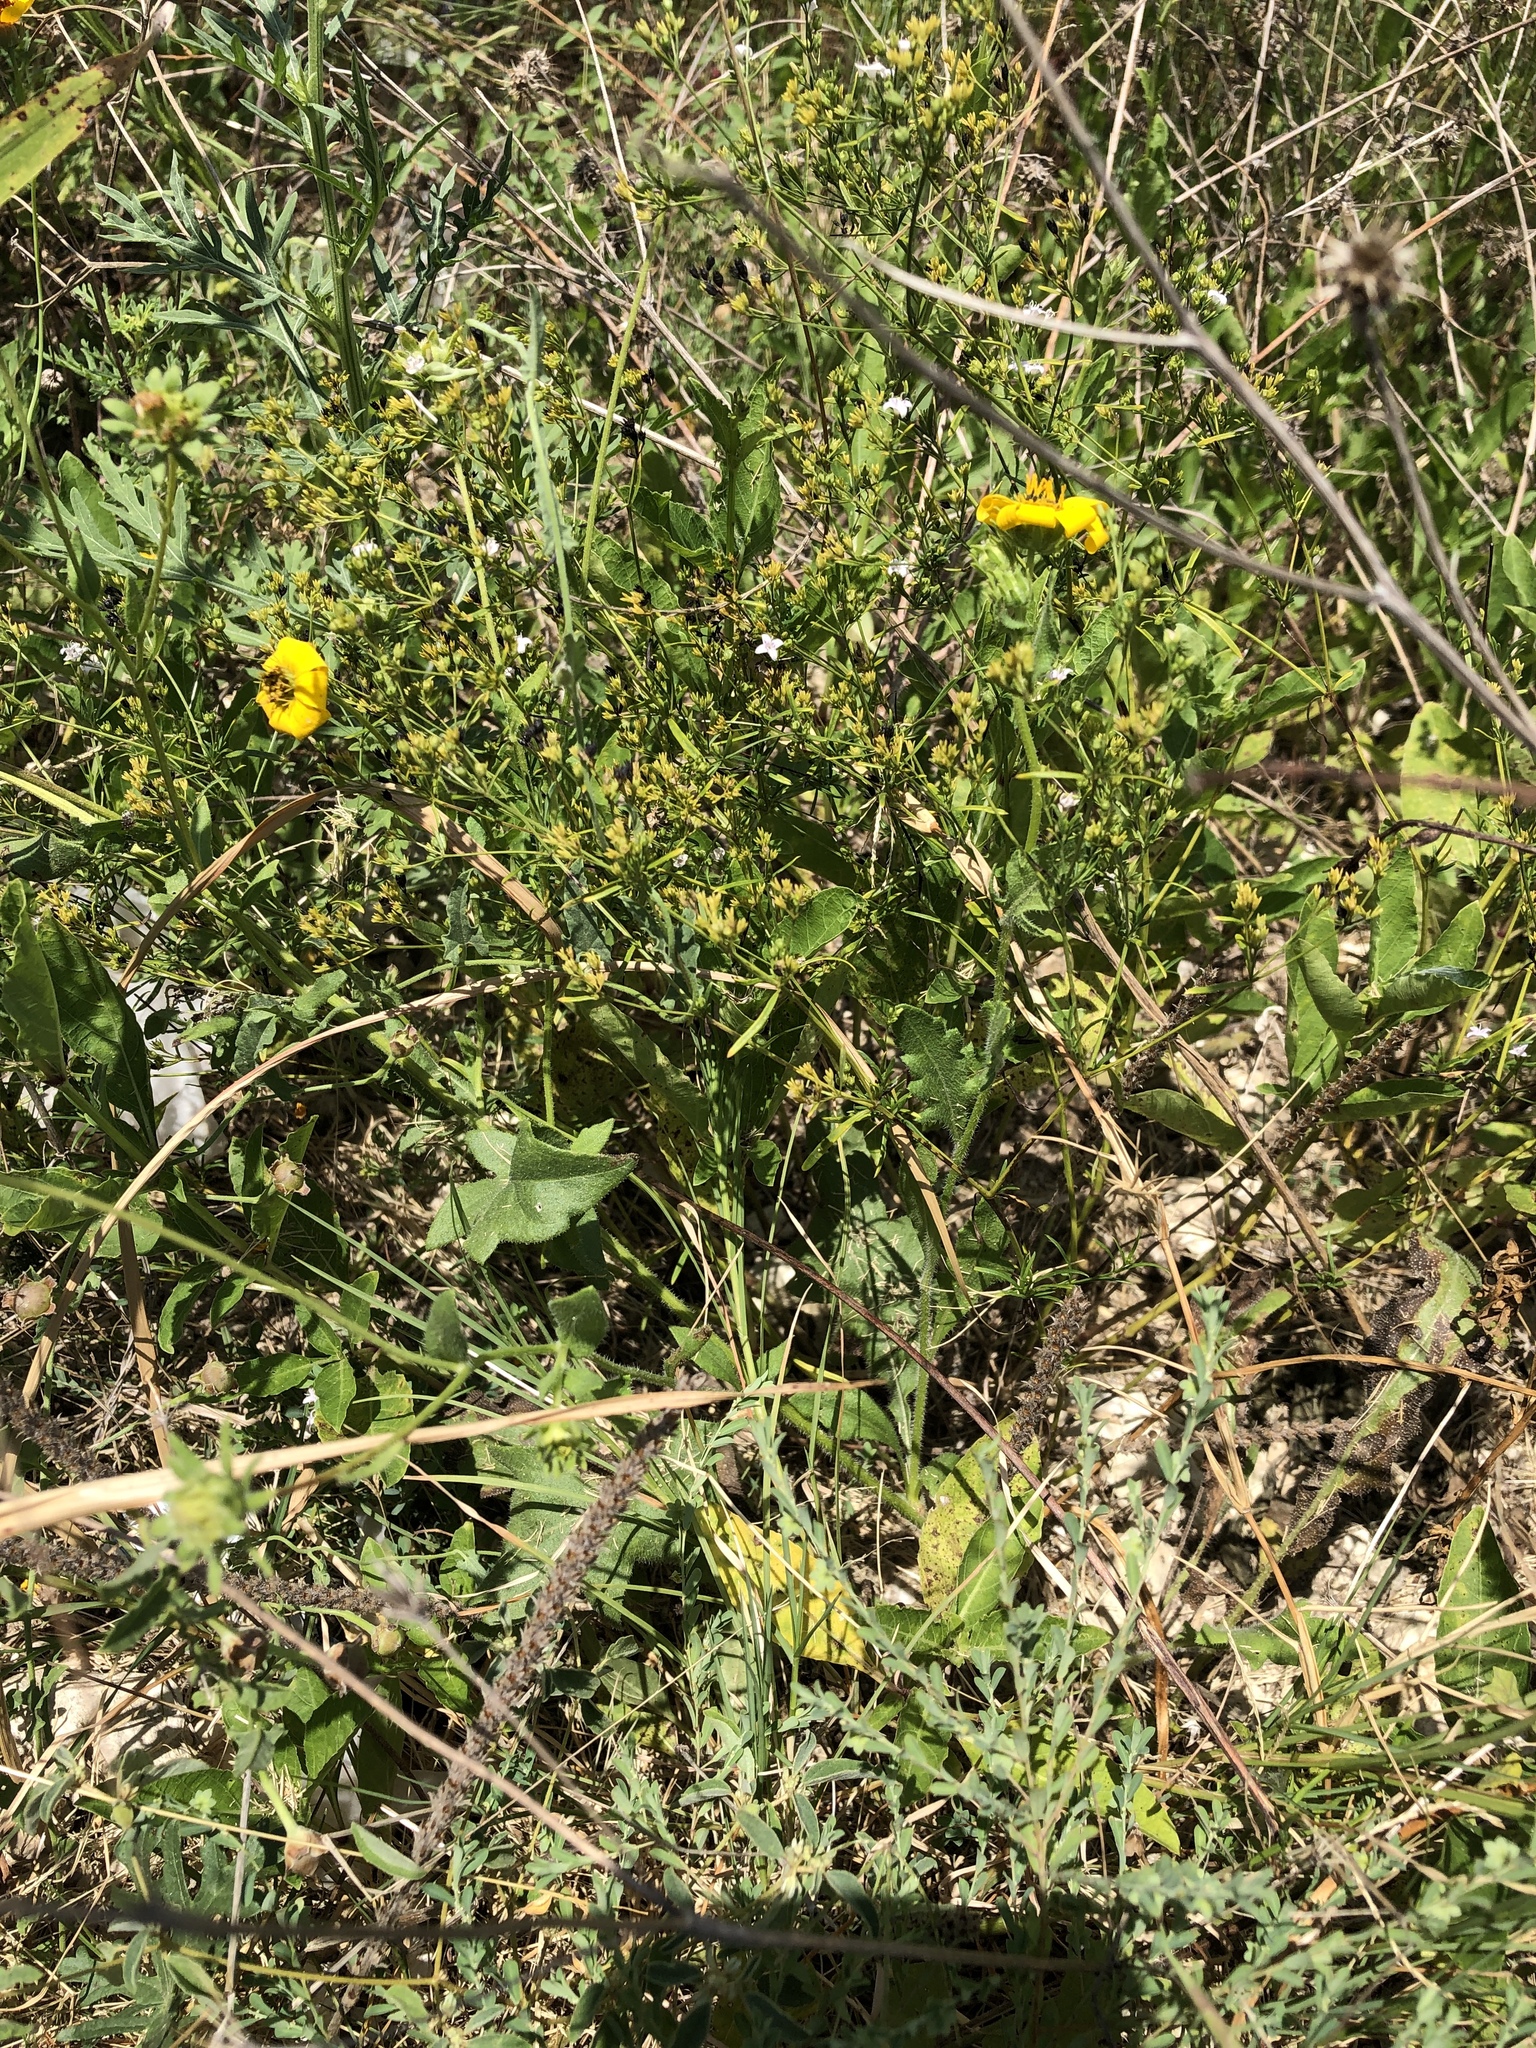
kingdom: Plantae
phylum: Tracheophyta
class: Magnoliopsida
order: Asterales
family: Asteraceae
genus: Engelmannia
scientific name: Engelmannia peristenia
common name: Engelmann's daisy
